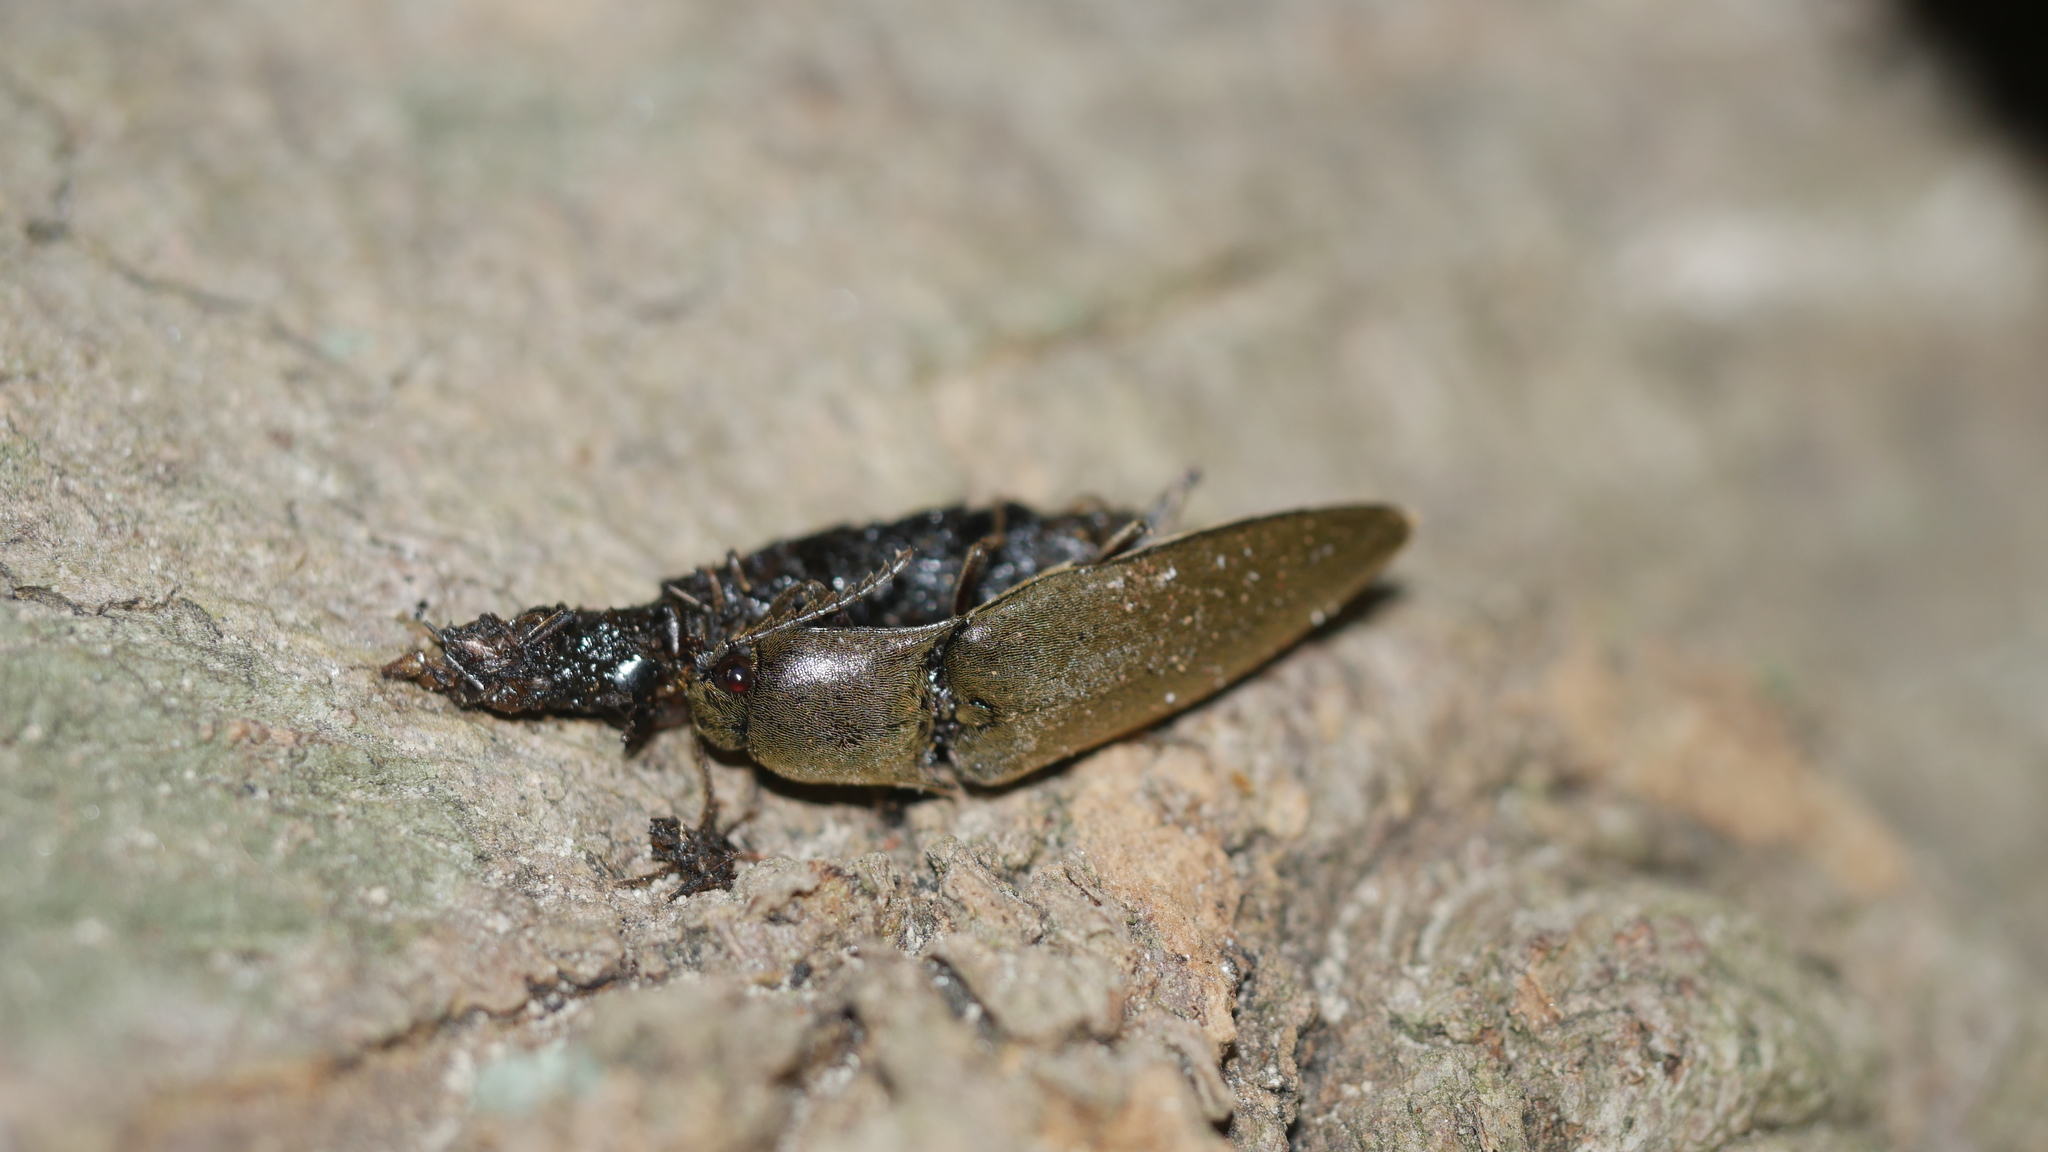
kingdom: Animalia
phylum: Arthropoda
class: Insecta
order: Coleoptera
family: Elateridae
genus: Orthostethus
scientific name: Orthostethus infuscatus
